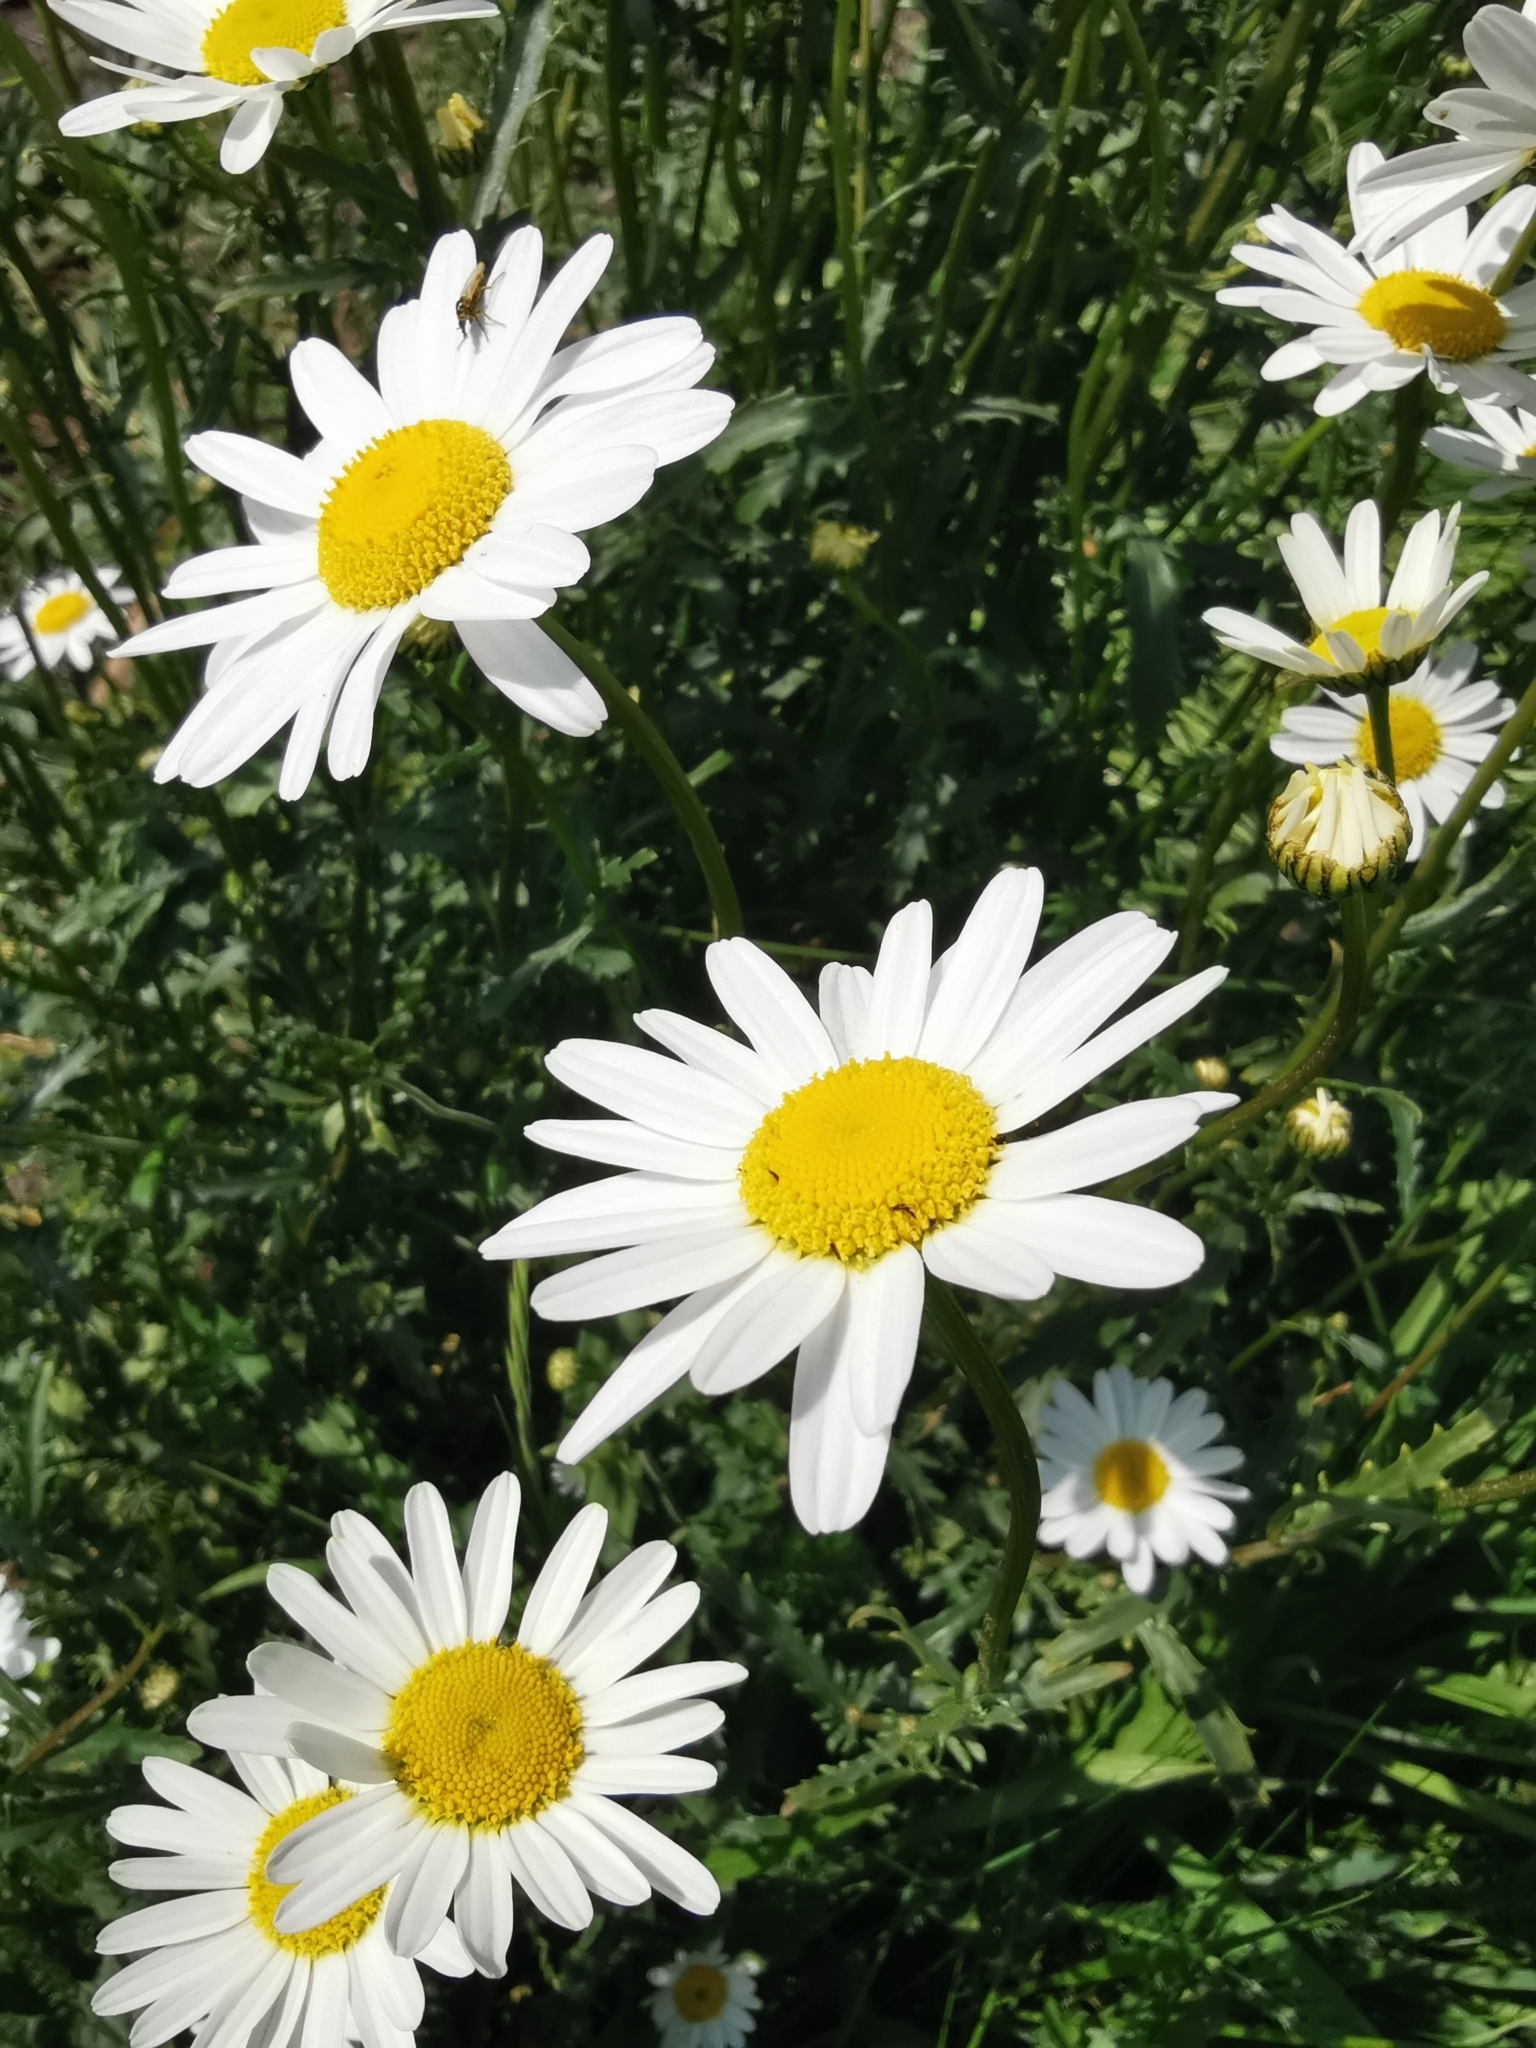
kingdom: Plantae
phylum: Tracheophyta
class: Magnoliopsida
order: Asterales
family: Asteraceae
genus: Leucanthemum
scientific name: Leucanthemum vulgare
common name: Oxeye daisy
